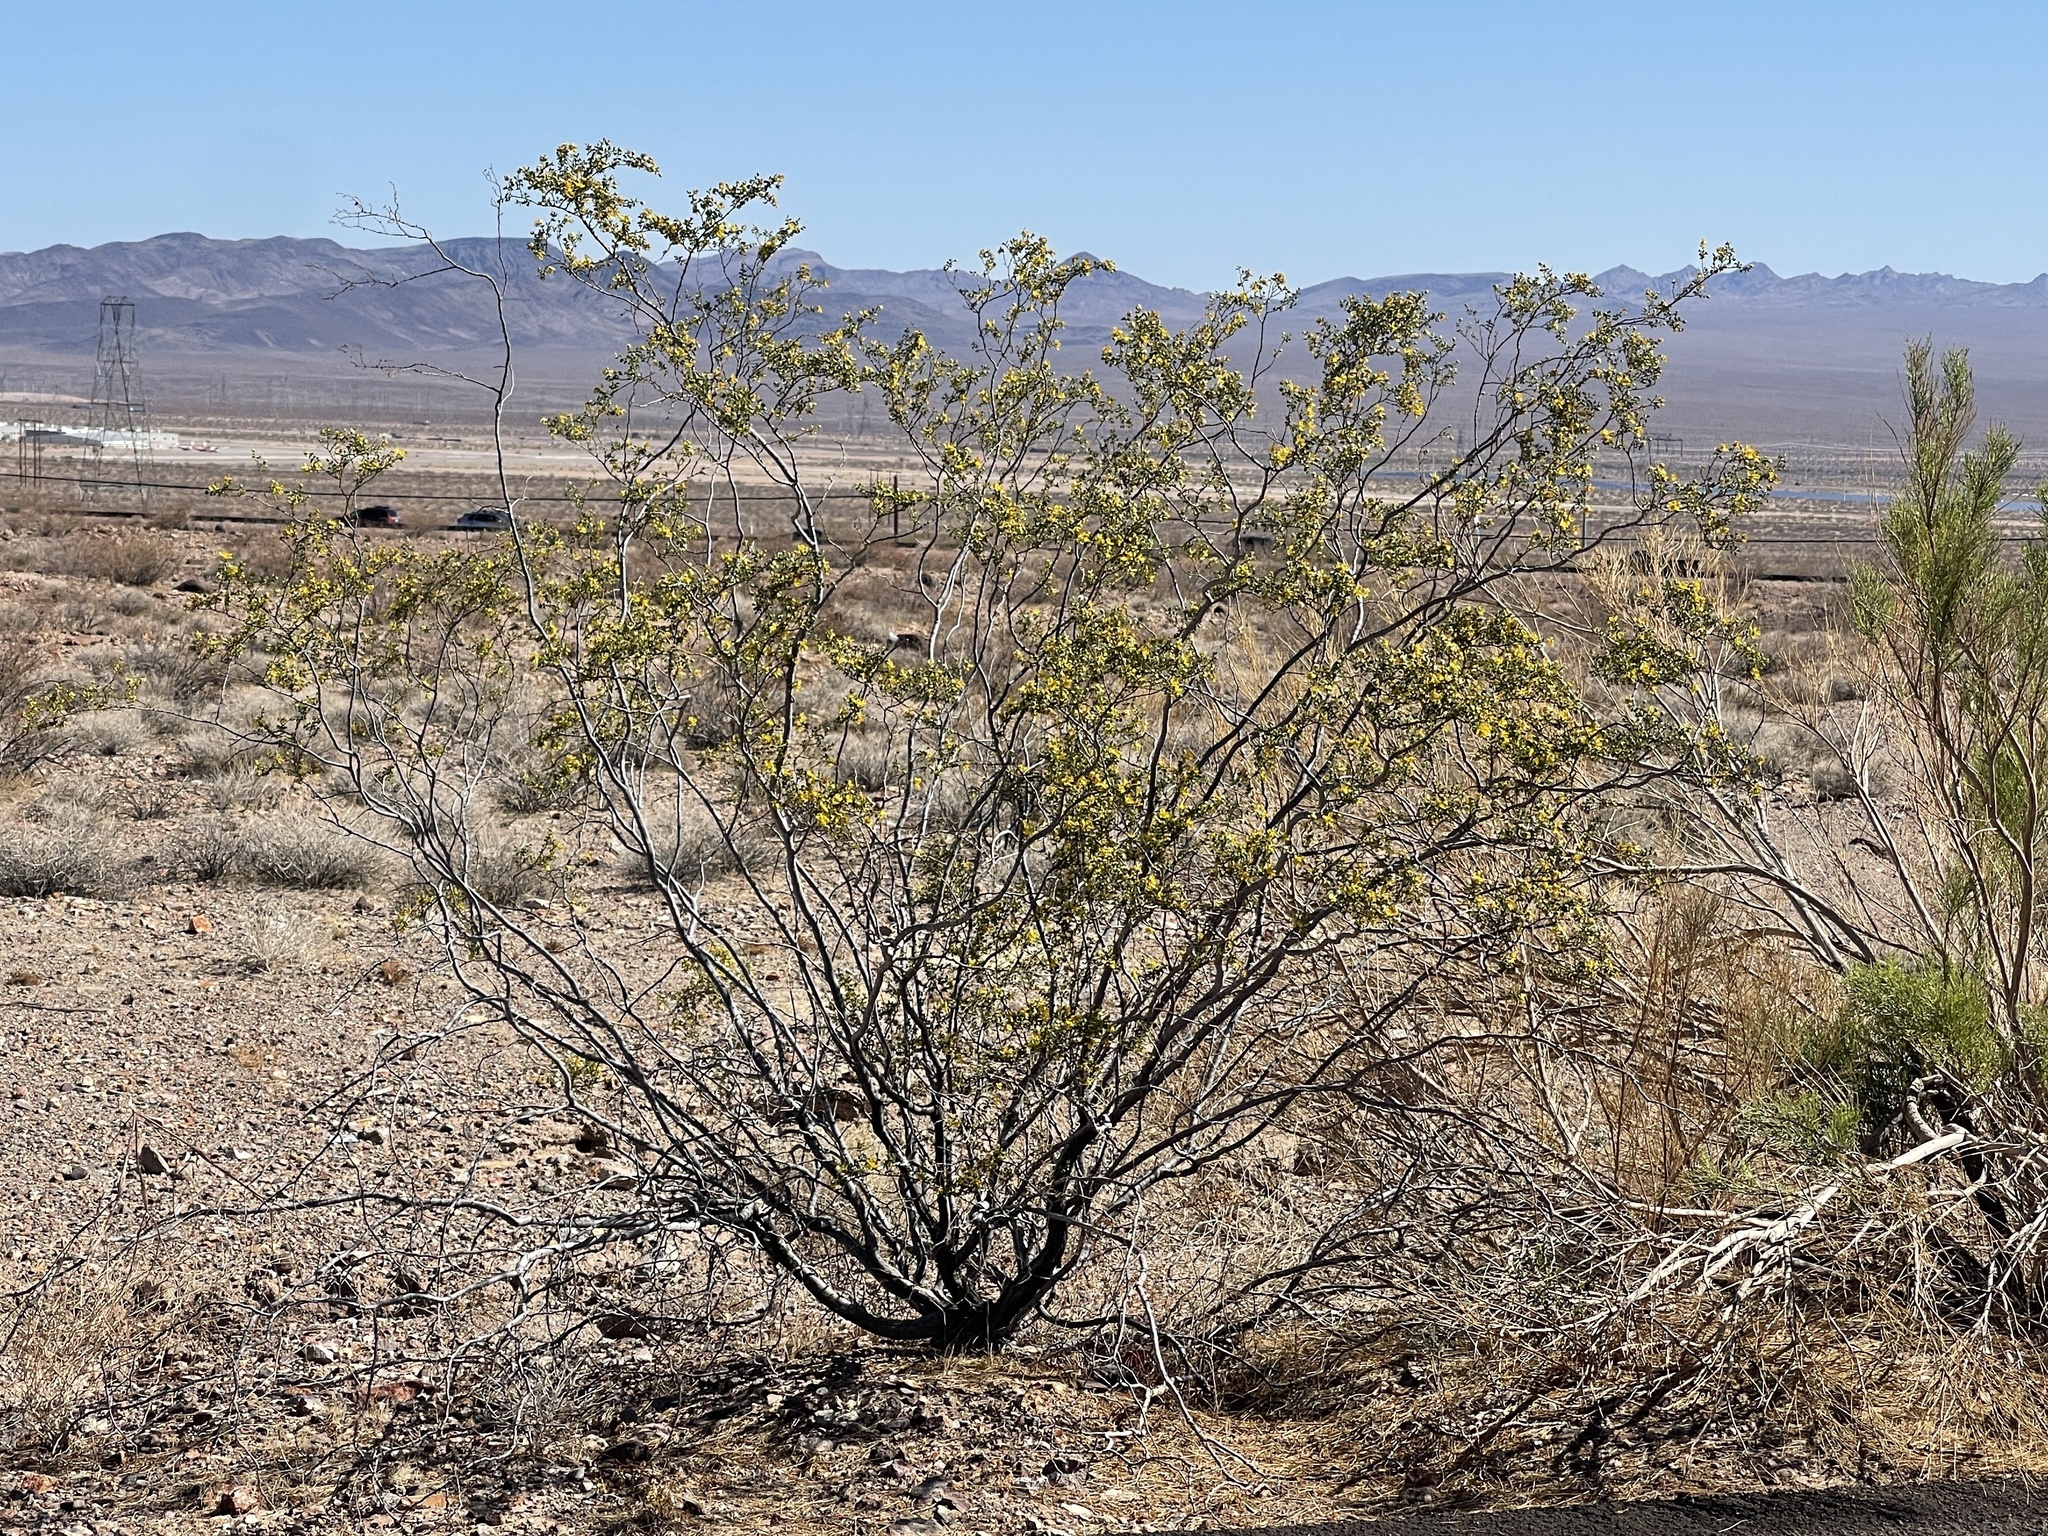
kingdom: Plantae
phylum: Tracheophyta
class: Magnoliopsida
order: Zygophyllales
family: Zygophyllaceae
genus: Larrea
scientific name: Larrea tridentata
